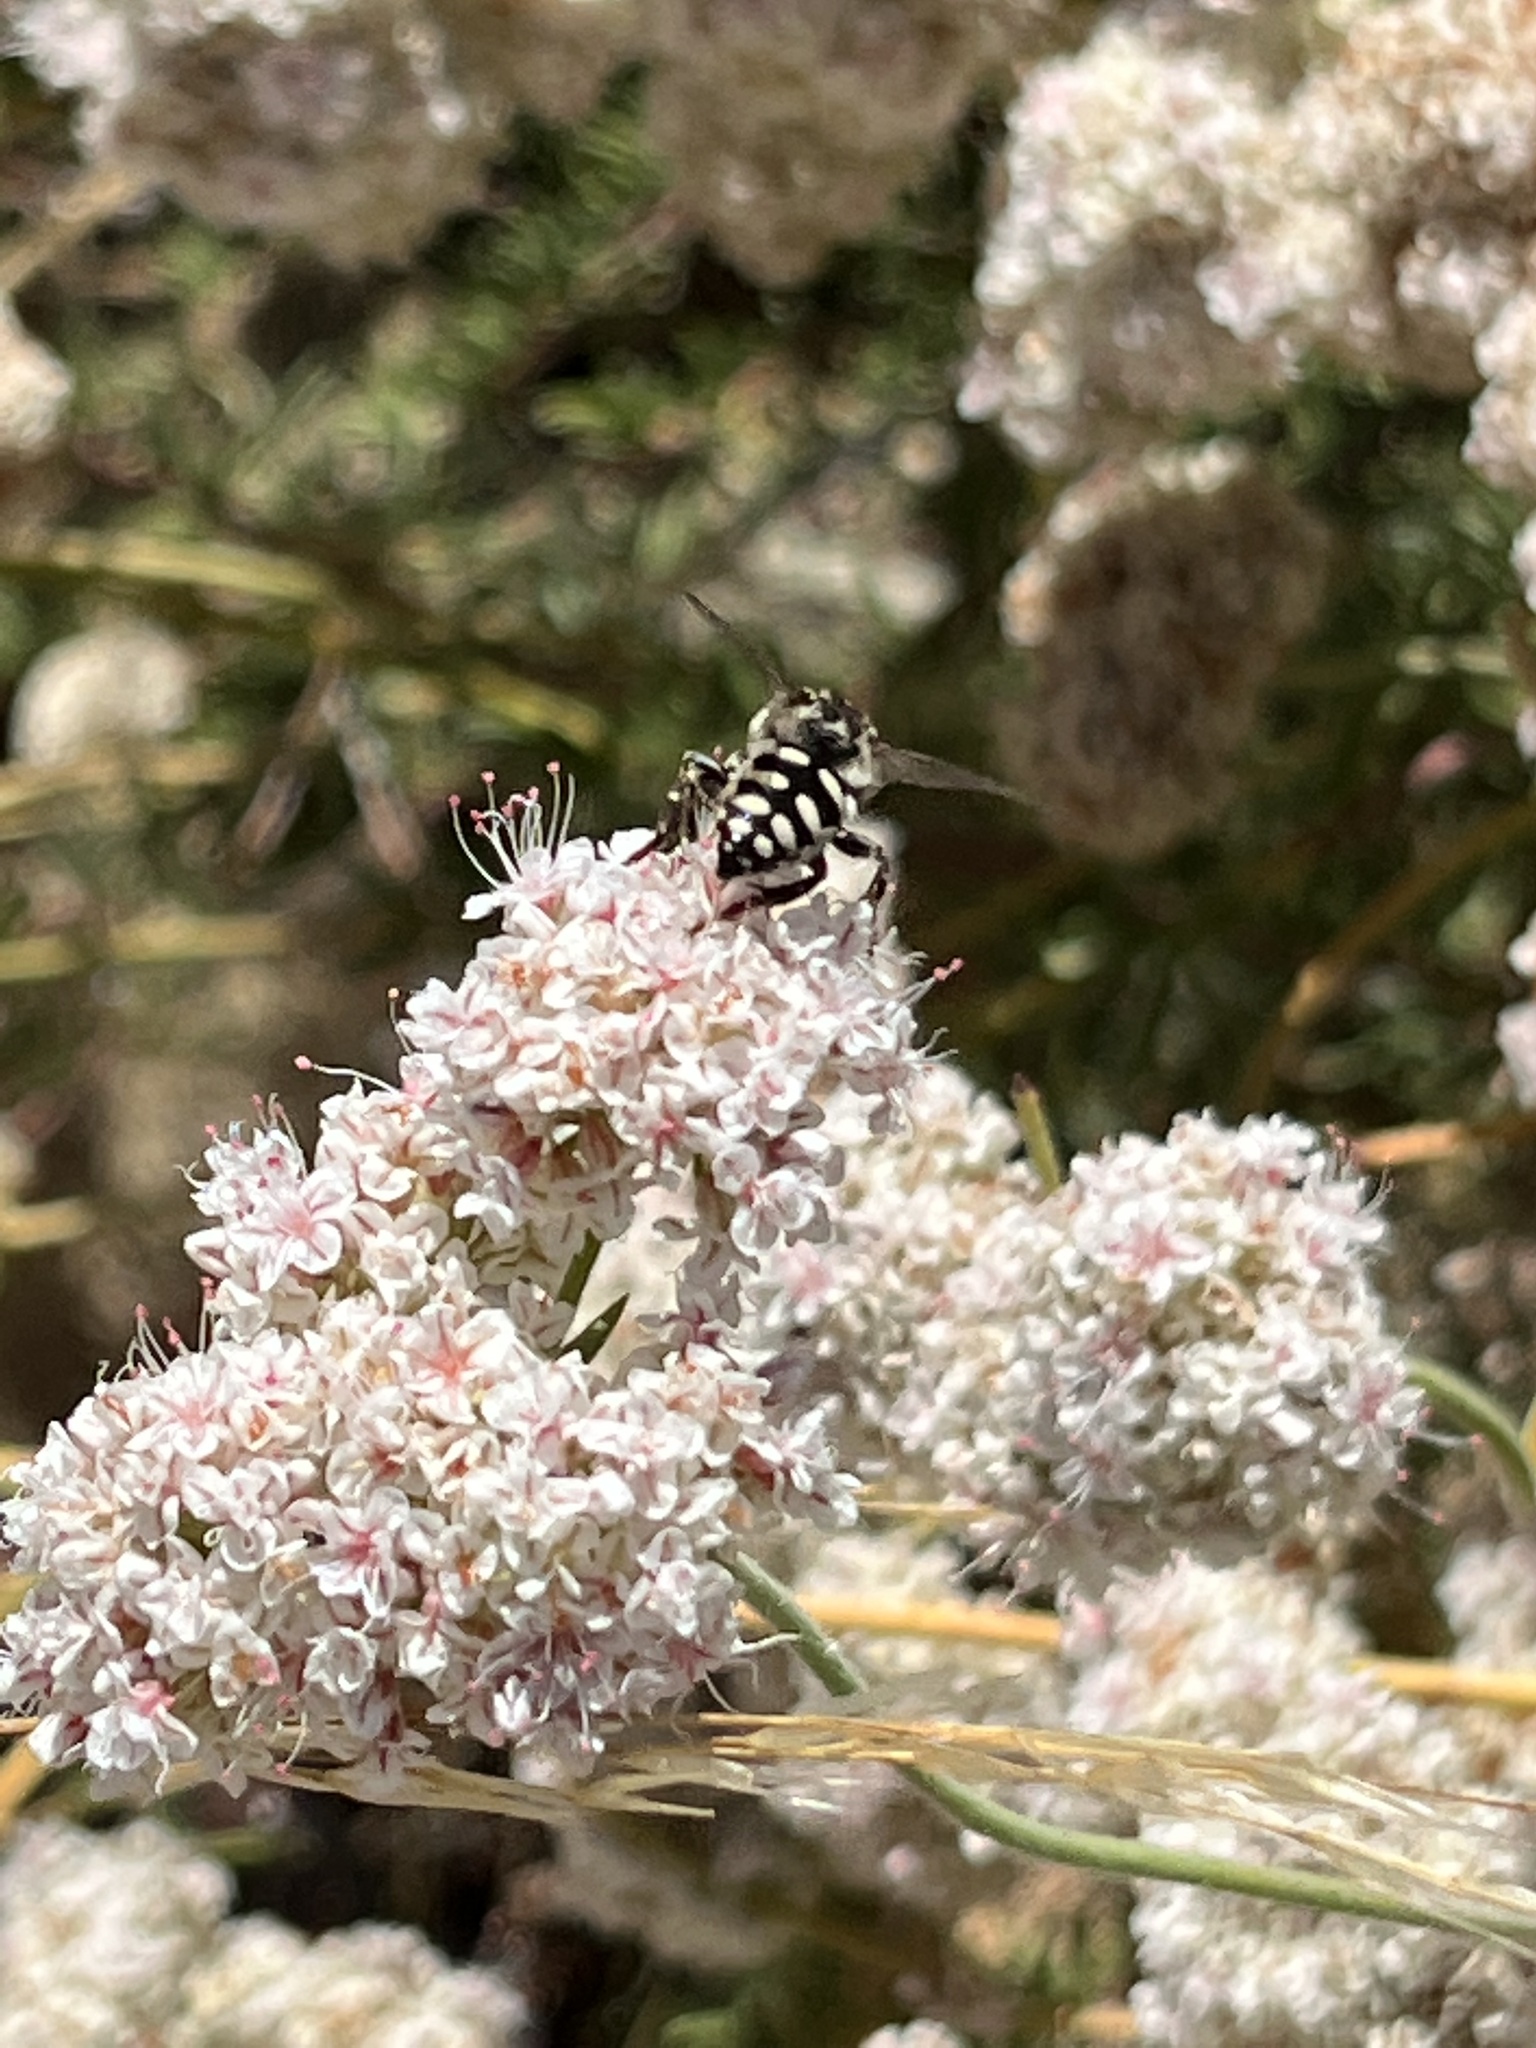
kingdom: Animalia
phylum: Arthropoda
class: Insecta
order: Hymenoptera
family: Apidae
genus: Brachymelecta
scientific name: Brachymelecta californica
